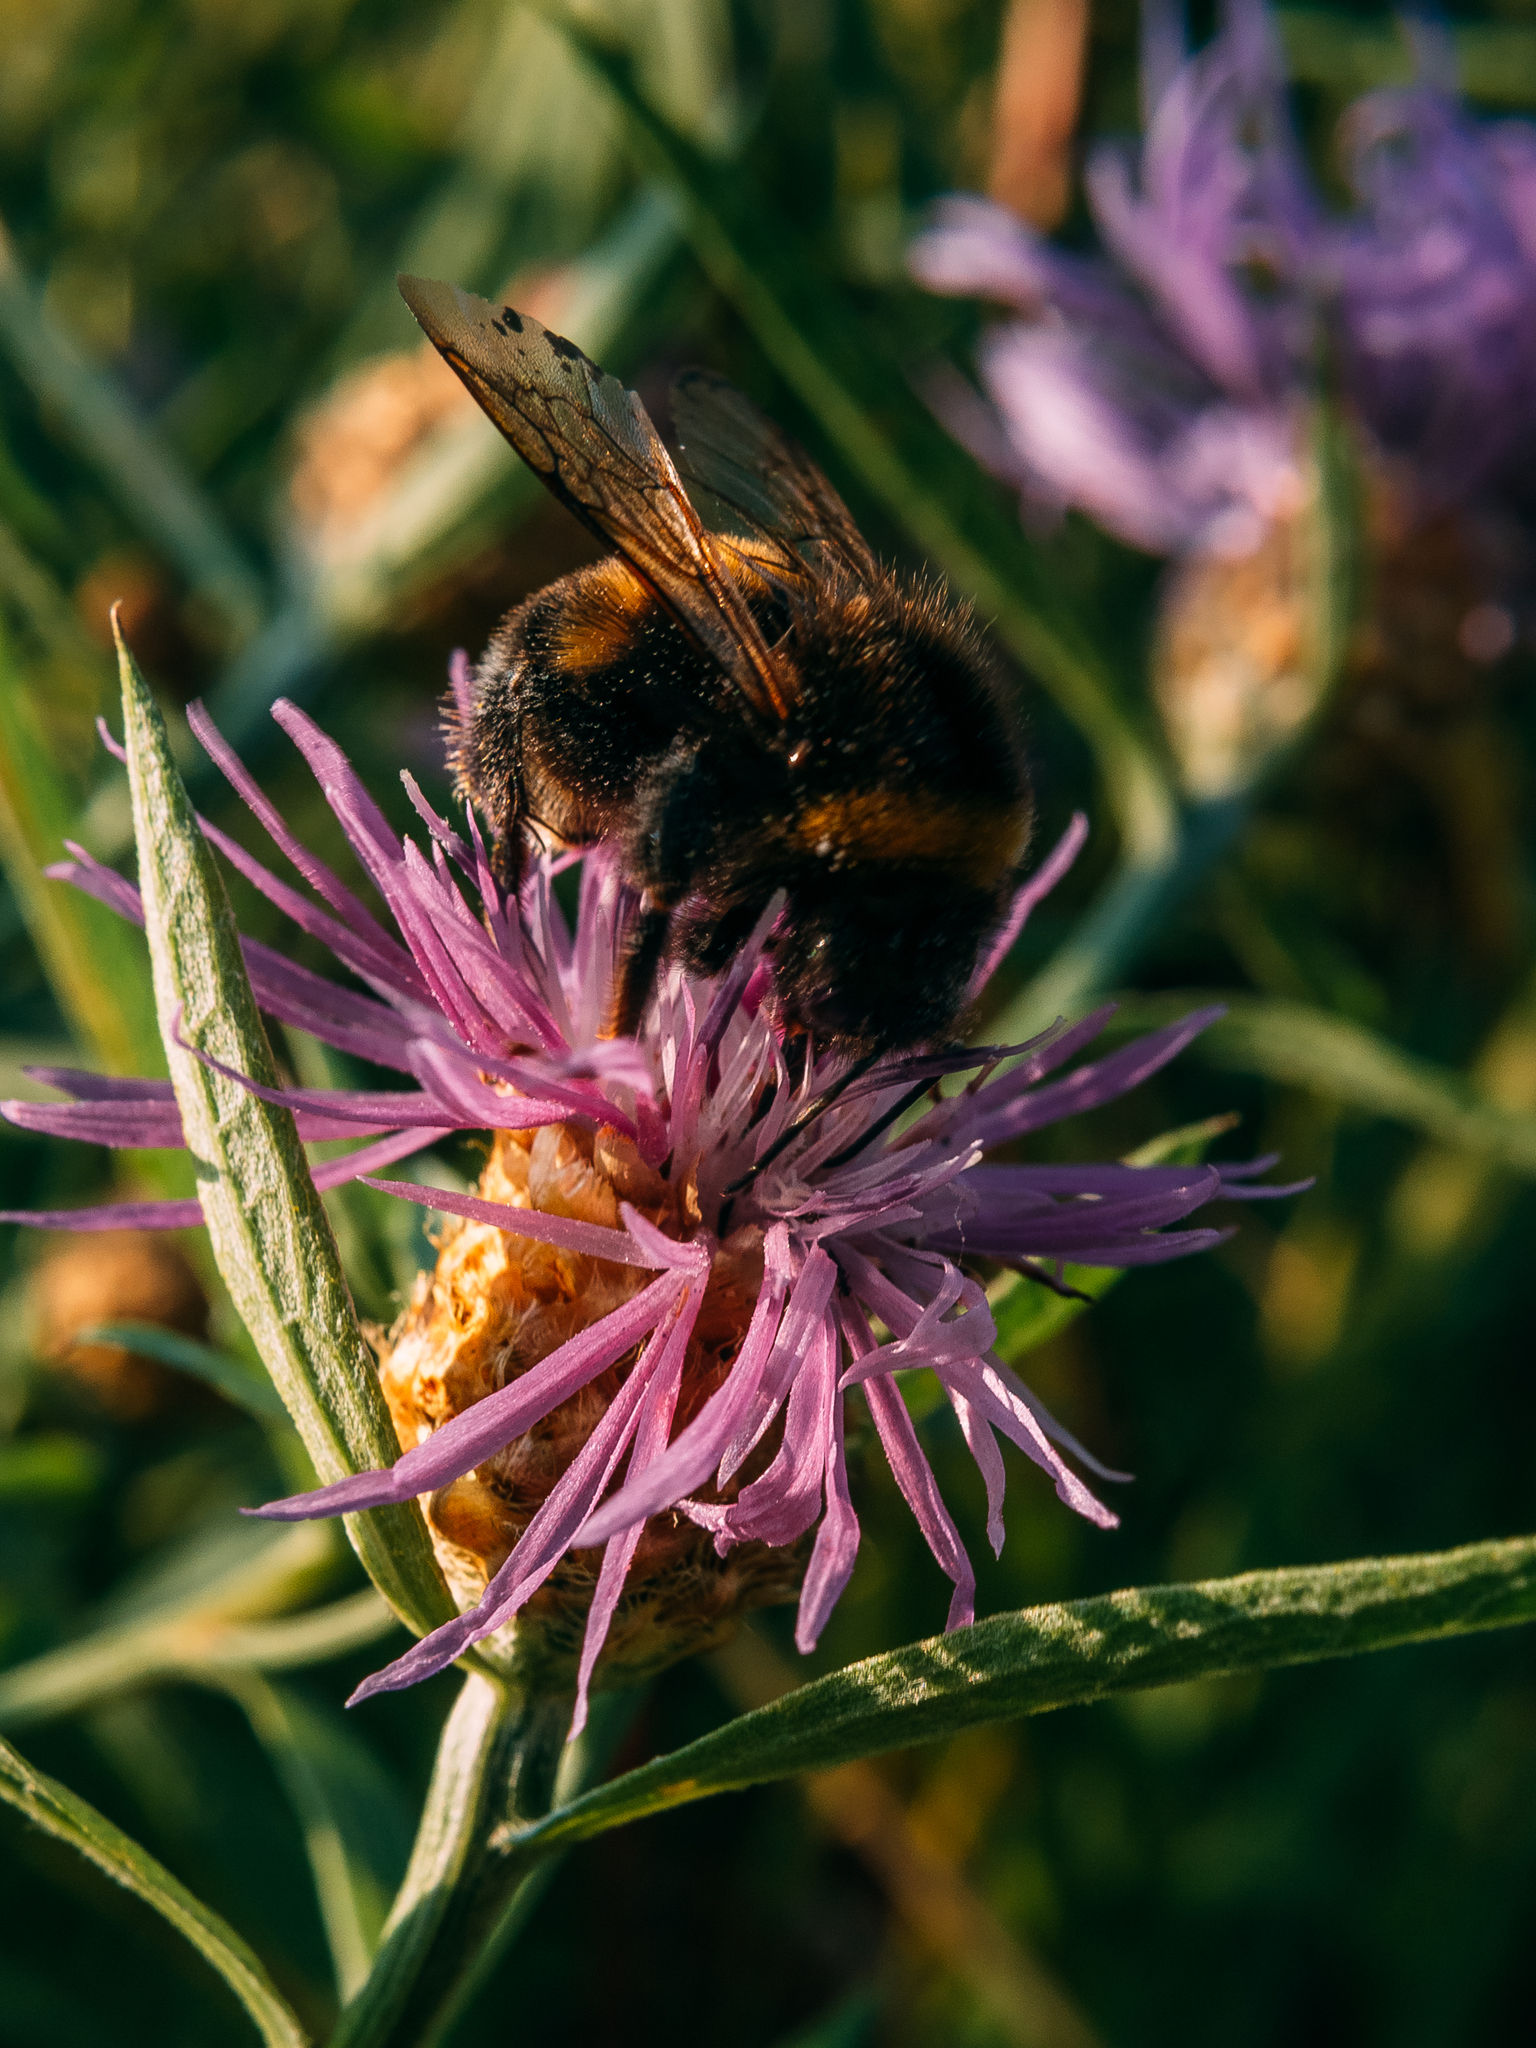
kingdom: Animalia
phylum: Arthropoda
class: Insecta
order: Hymenoptera
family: Apidae
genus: Bombus
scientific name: Bombus terrestris
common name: Buff-tailed bumblebee
